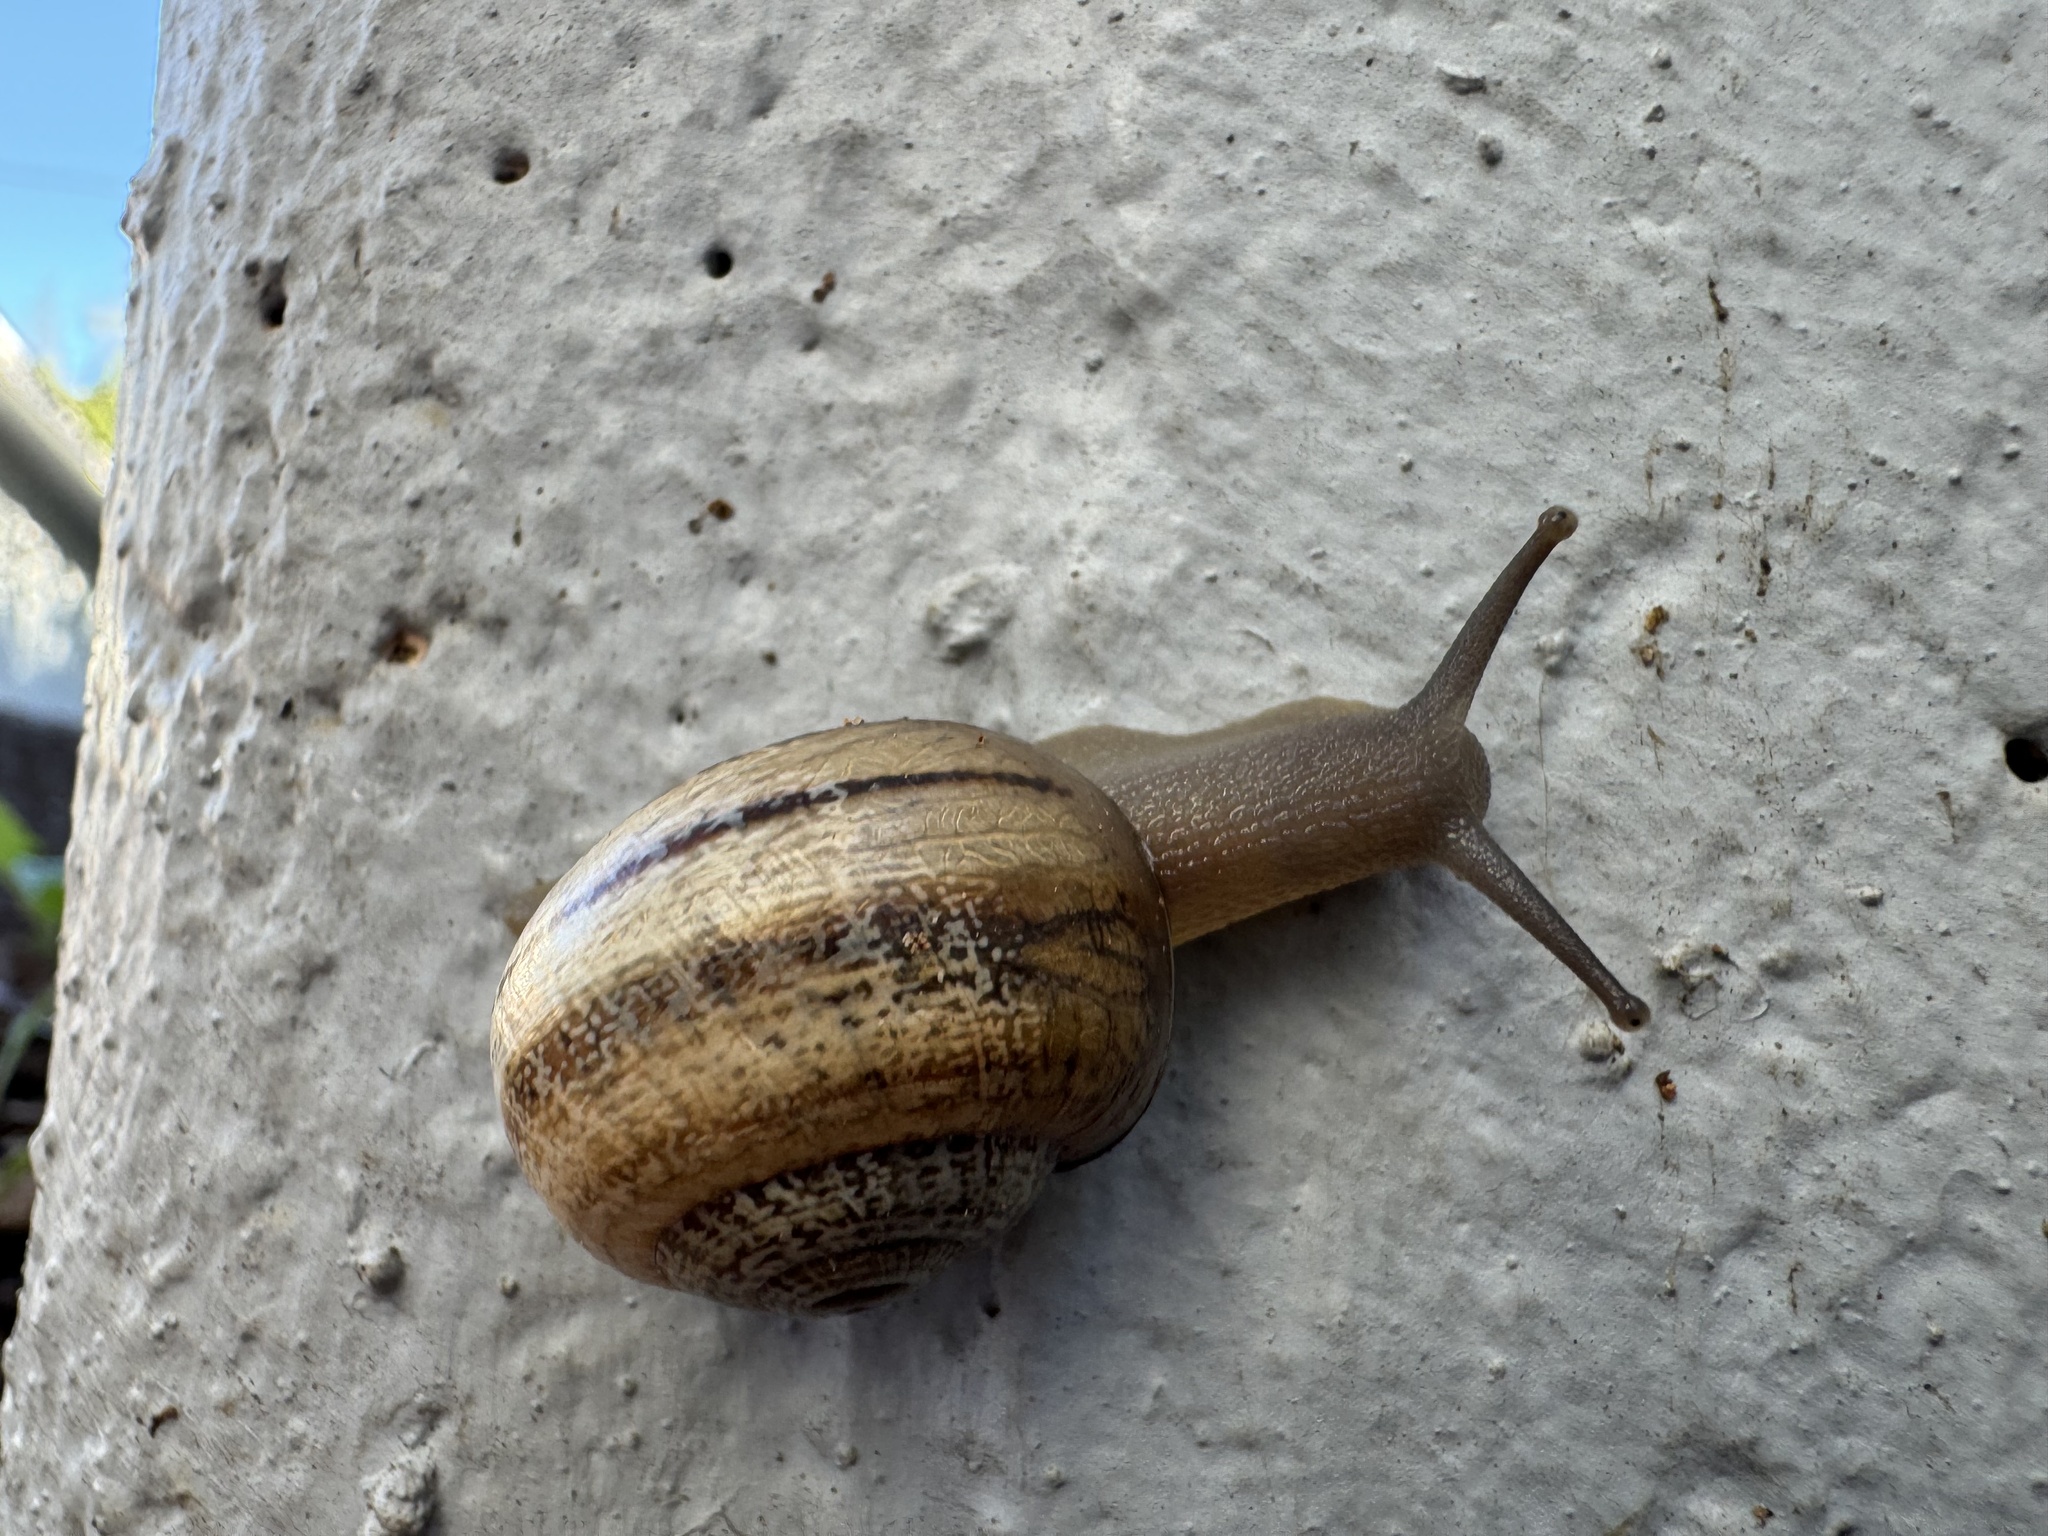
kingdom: Animalia
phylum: Mollusca
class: Gastropoda
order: Stylommatophora
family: Helicidae
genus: Otala
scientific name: Otala lactea
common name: Milk snail
